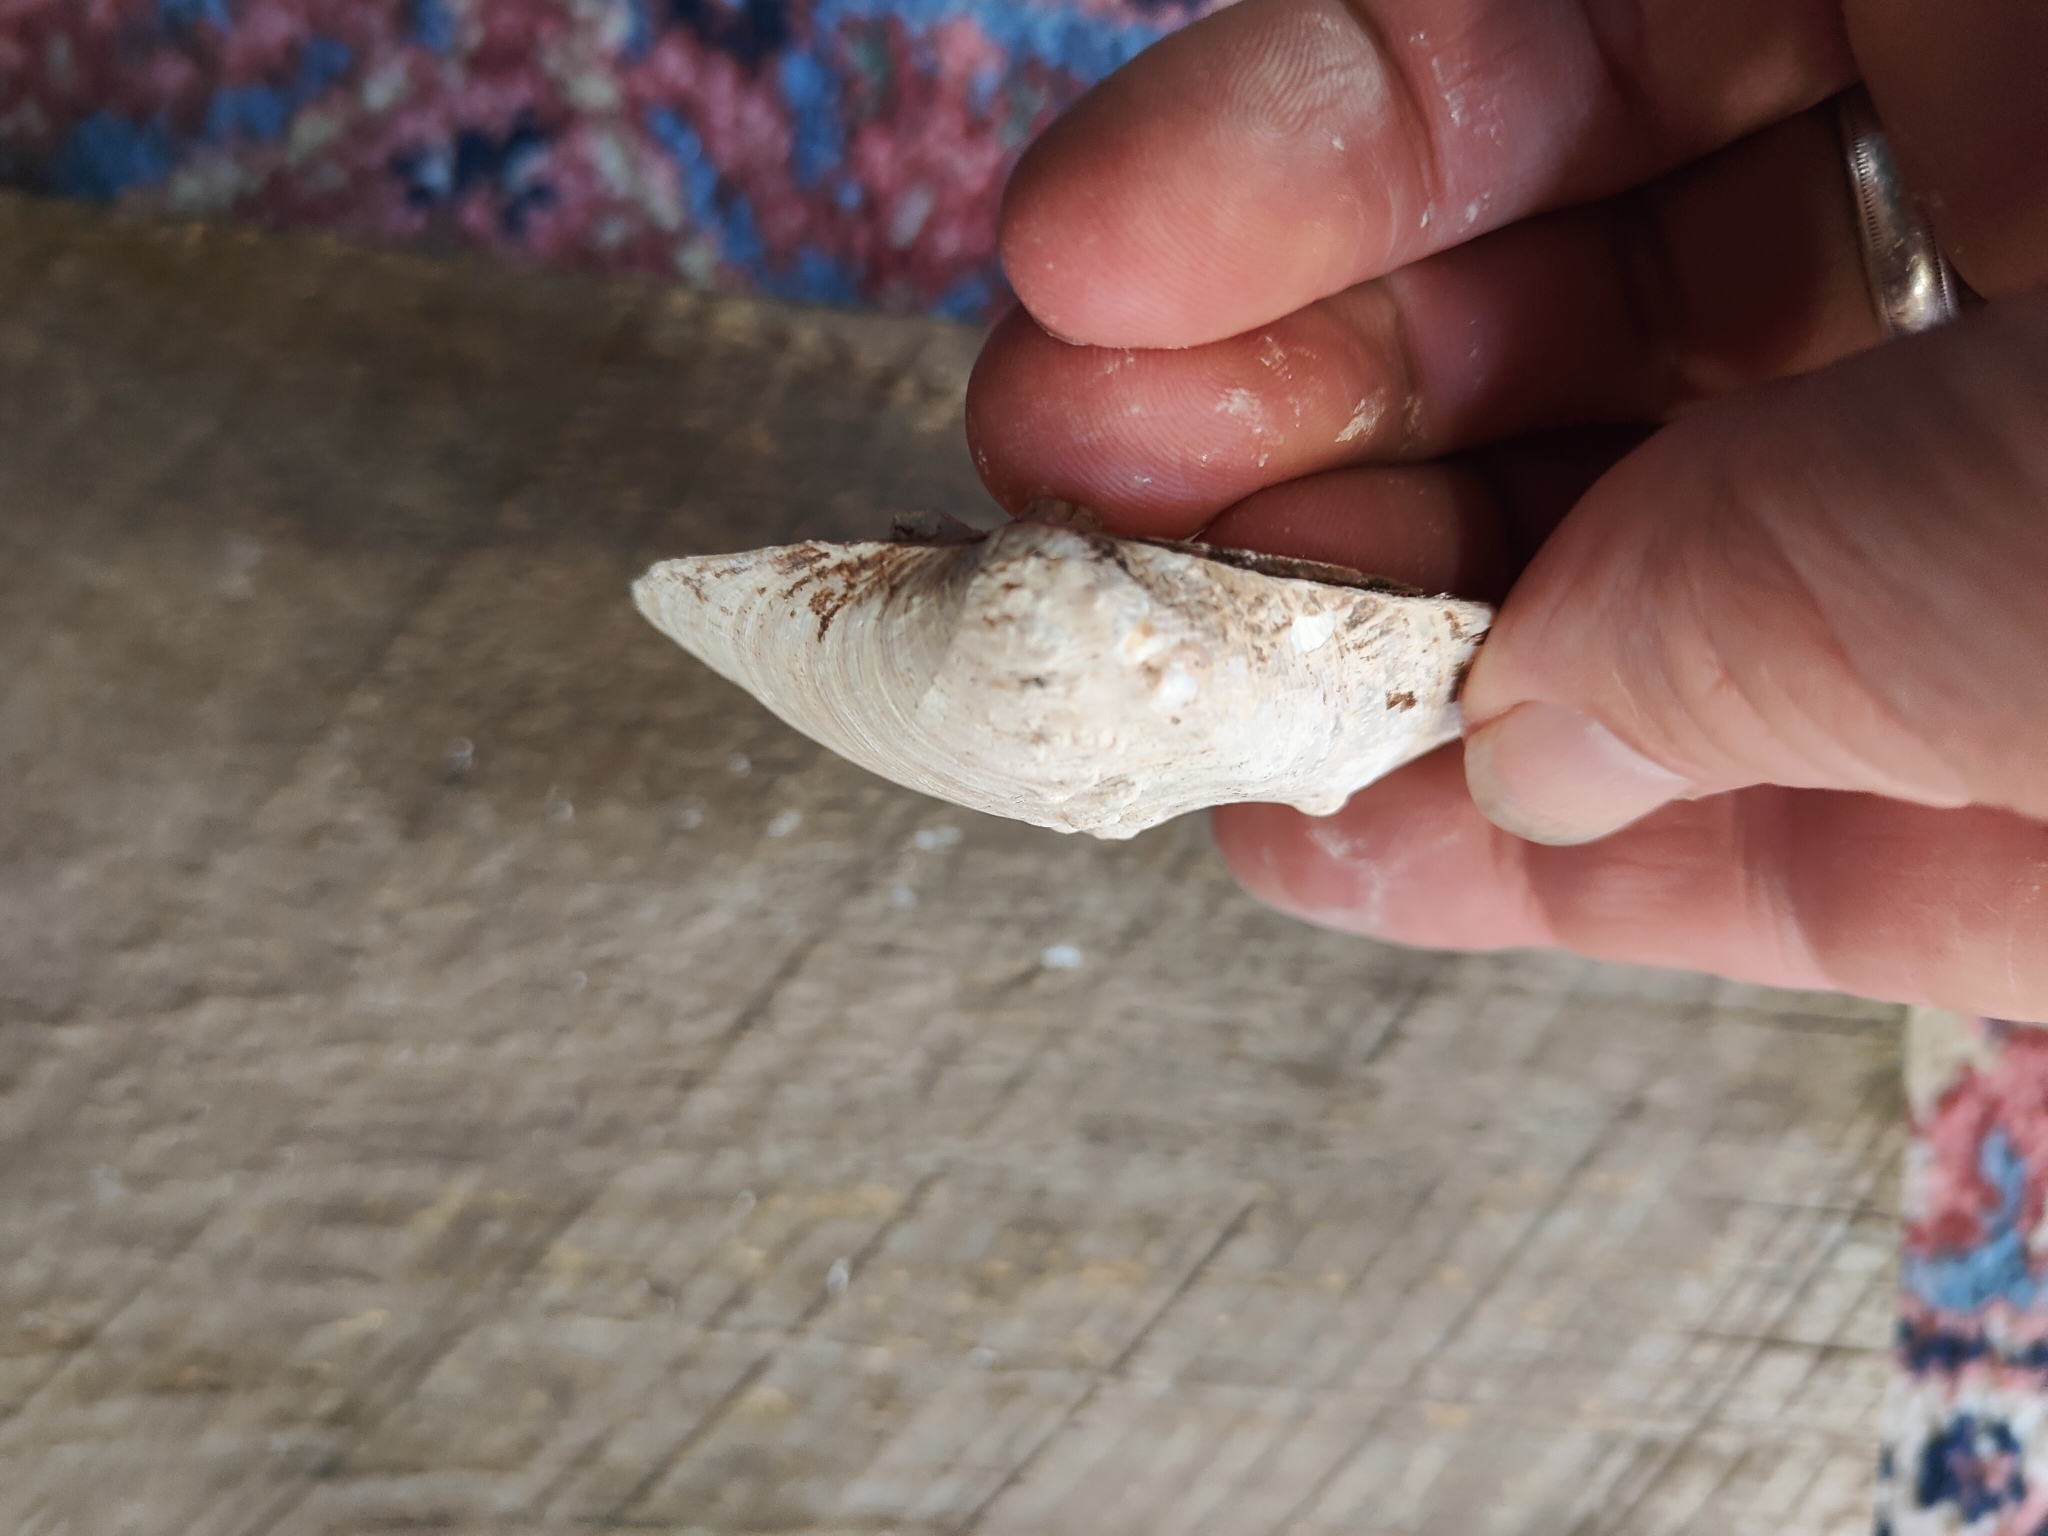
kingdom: Animalia
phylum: Mollusca
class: Bivalvia
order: Unionida
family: Unionidae
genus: Quadrula
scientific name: Quadrula quadrula
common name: Mapleleaf
